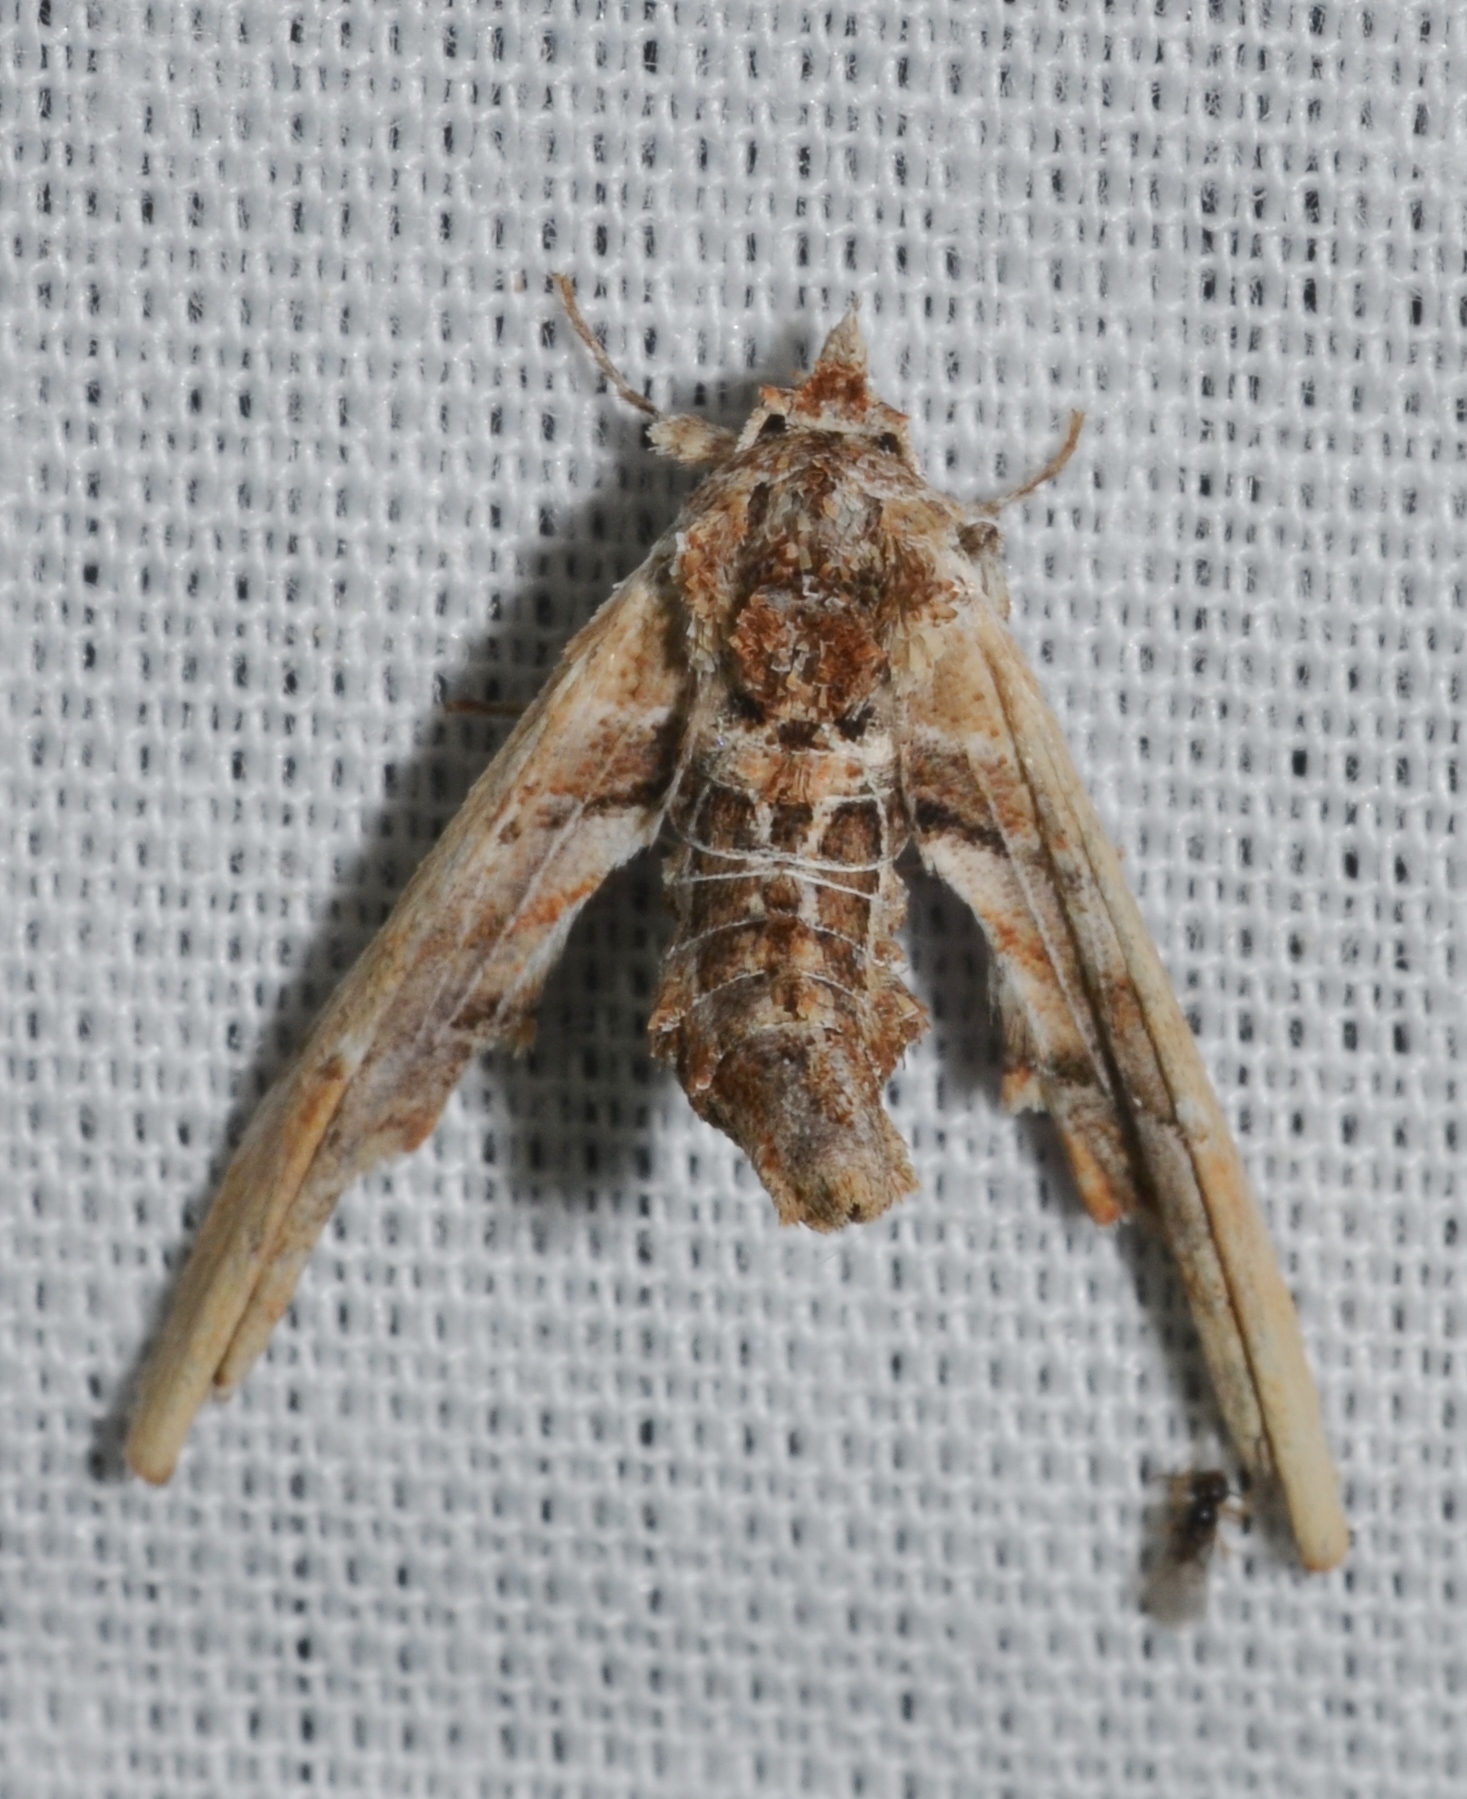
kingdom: Animalia
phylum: Arthropoda
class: Insecta
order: Lepidoptera
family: Euteliidae
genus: Marathyssa
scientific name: Marathyssa basalis
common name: Light marathyssa moth
